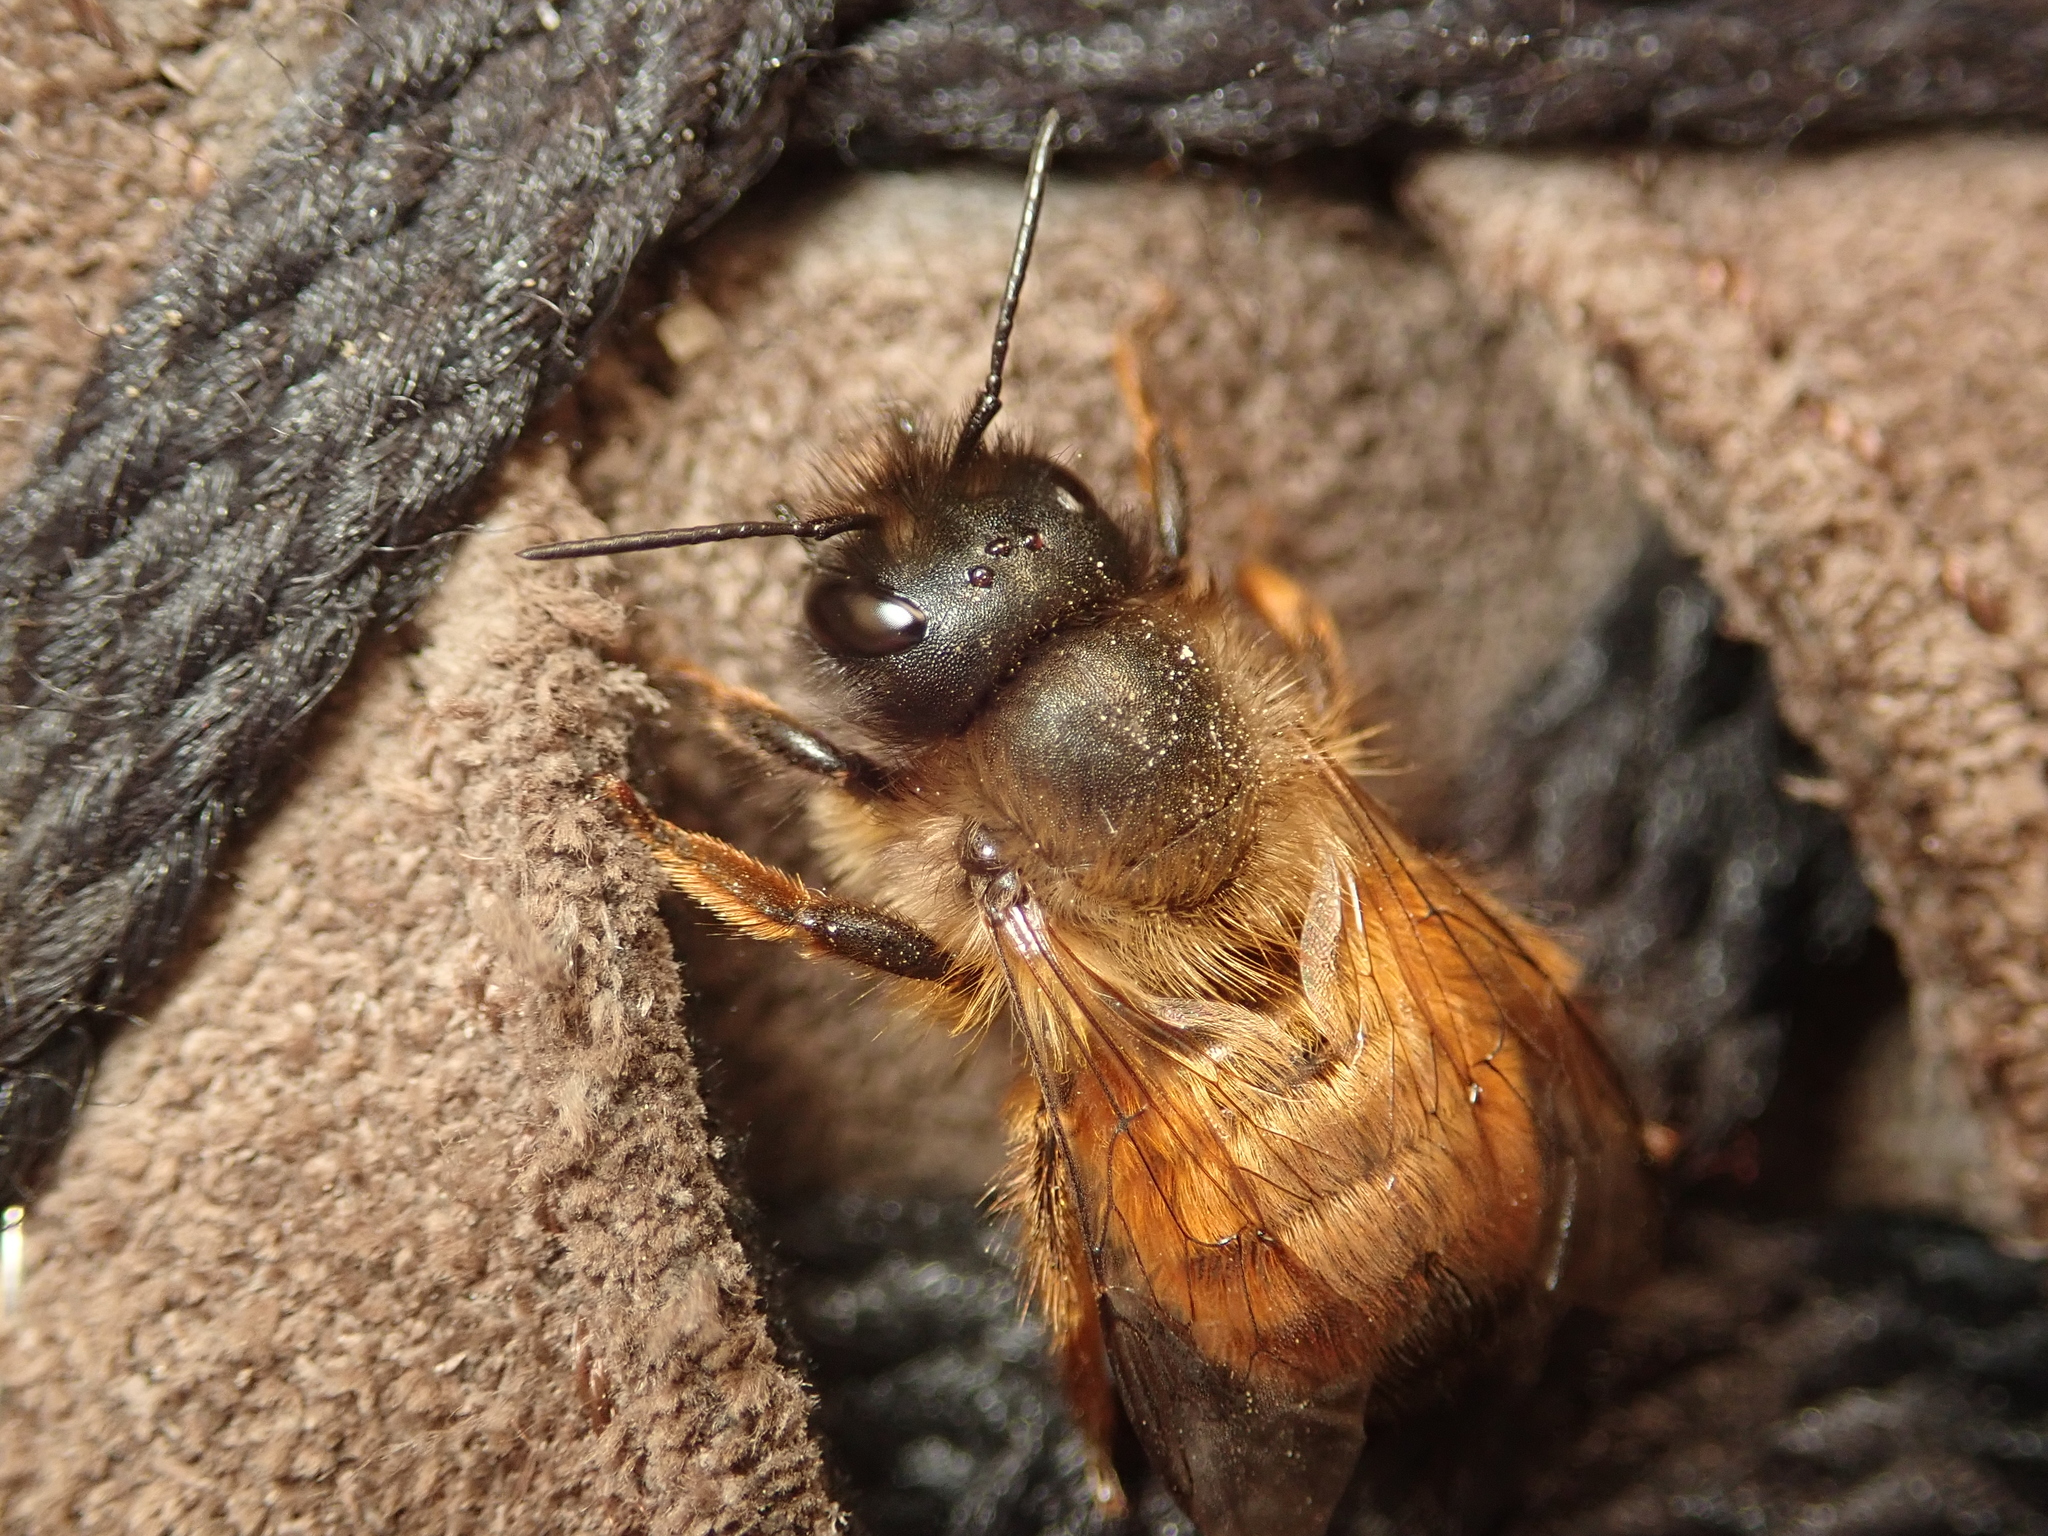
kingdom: Animalia
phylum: Arthropoda
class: Insecta
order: Hymenoptera
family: Megachilidae
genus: Osmia
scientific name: Osmia bicornis
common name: Red mason bee
